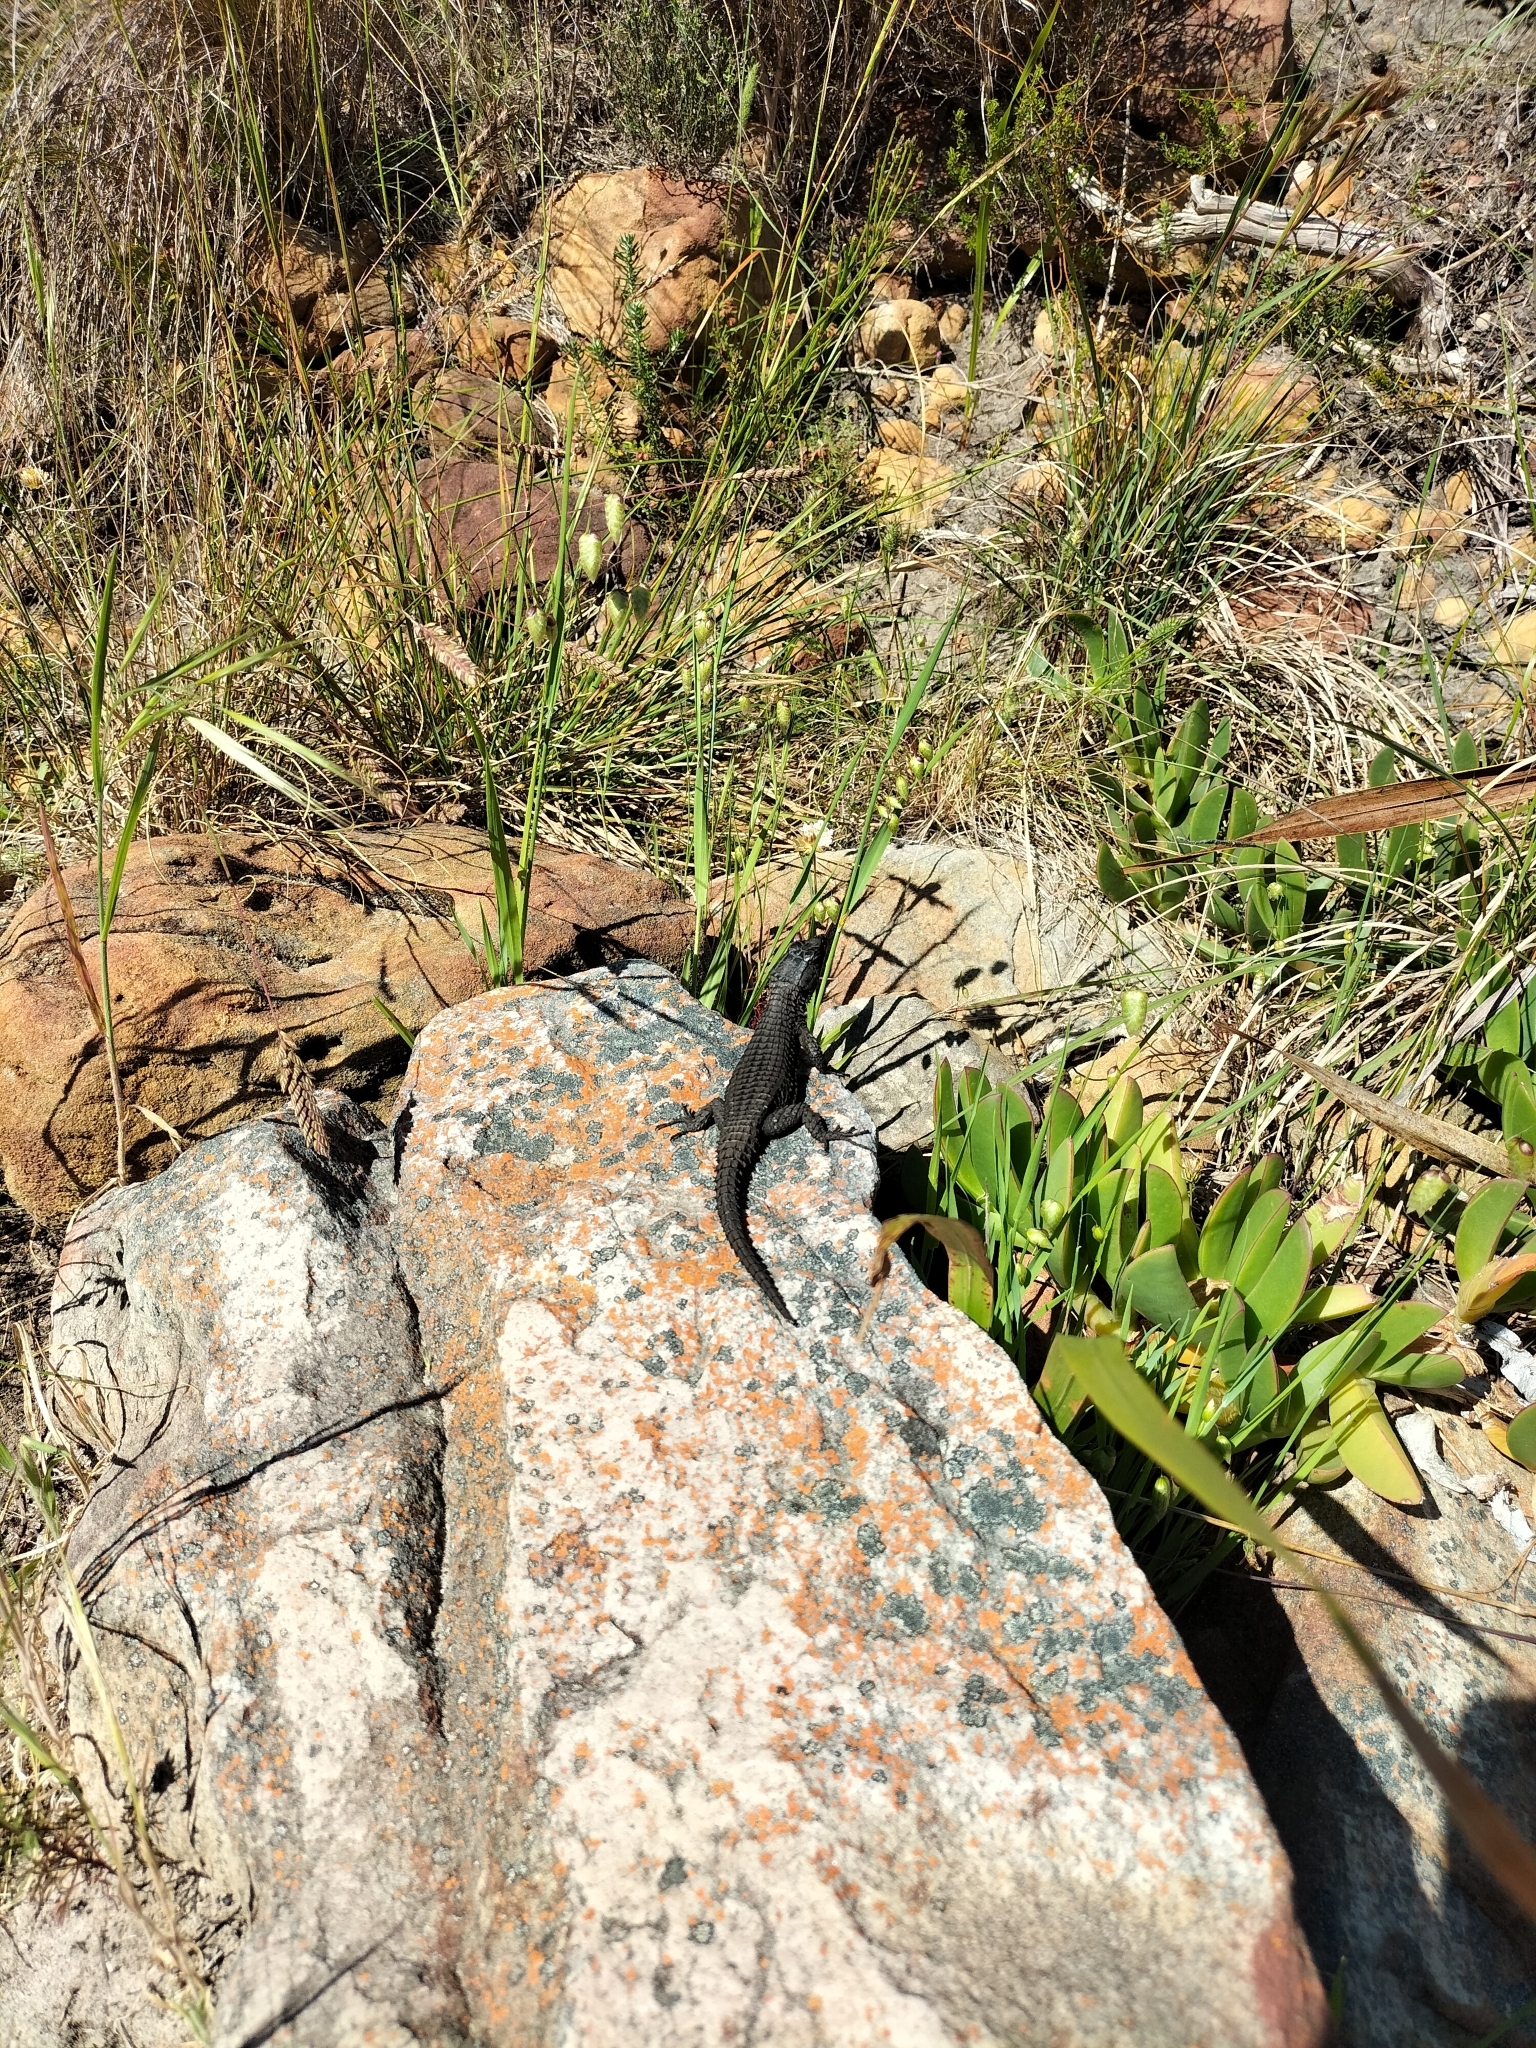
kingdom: Animalia
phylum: Chordata
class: Squamata
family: Cordylidae
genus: Cordylus
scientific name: Cordylus niger
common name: Black girdled lizard
